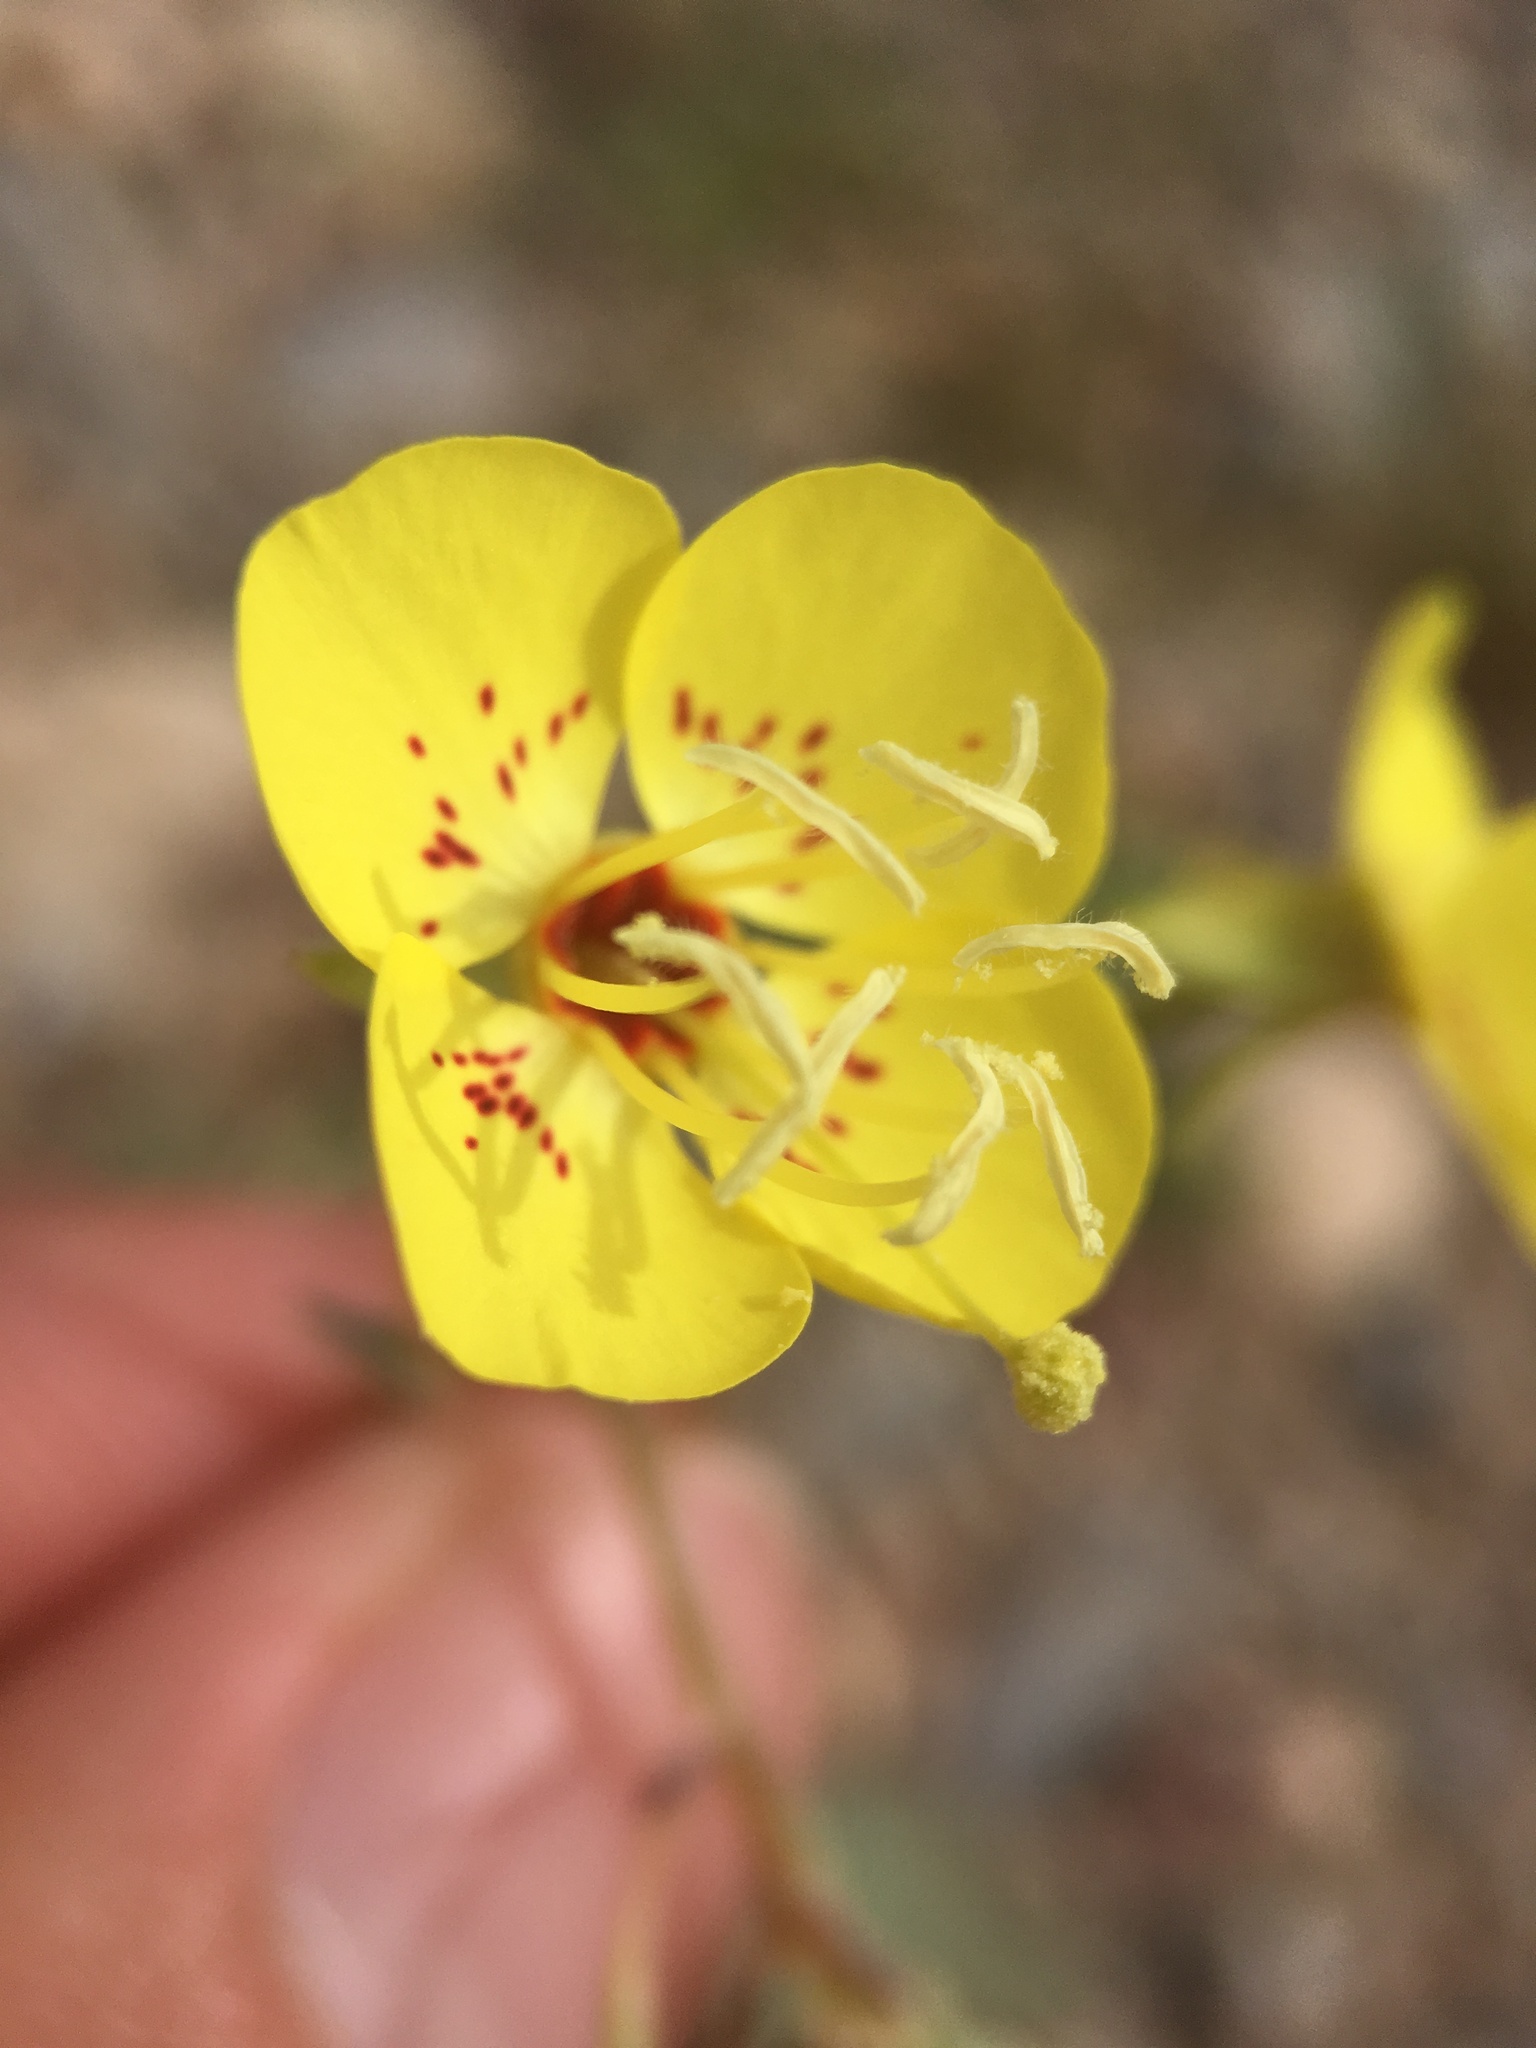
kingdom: Plantae
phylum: Tracheophyta
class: Magnoliopsida
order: Myrtales
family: Onagraceae
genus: Chylismia
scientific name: Chylismia claviformis
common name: Browneyes
